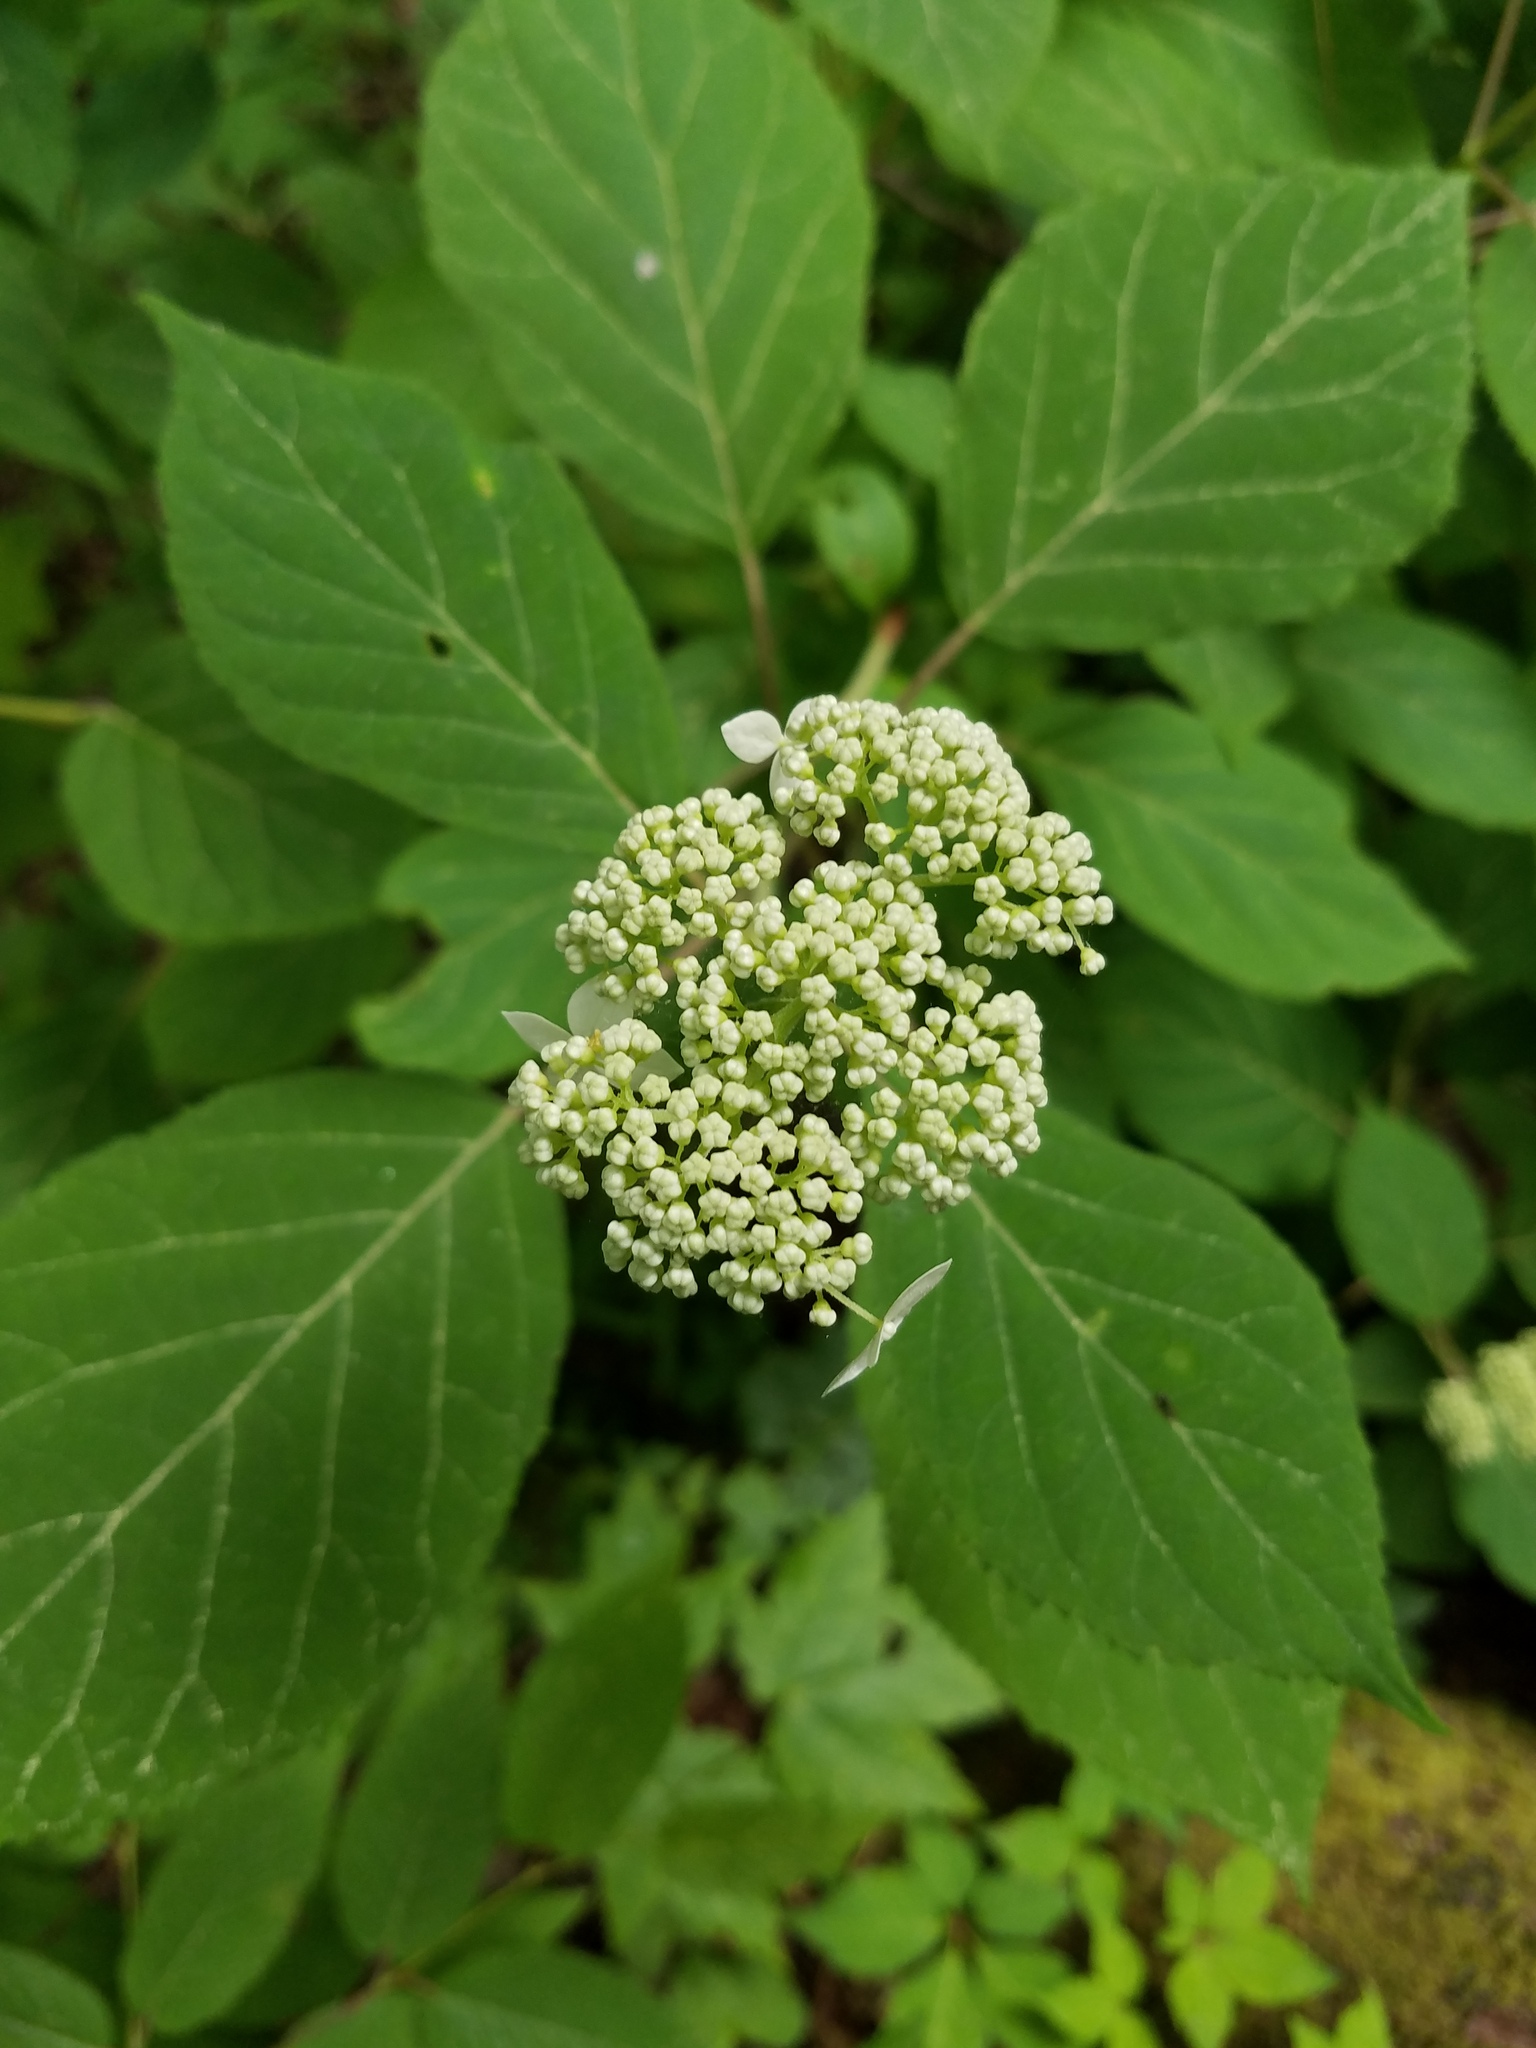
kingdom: Plantae
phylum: Tracheophyta
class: Magnoliopsida
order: Cornales
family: Hydrangeaceae
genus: Hydrangea
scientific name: Hydrangea arborescens
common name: Sevenbark
